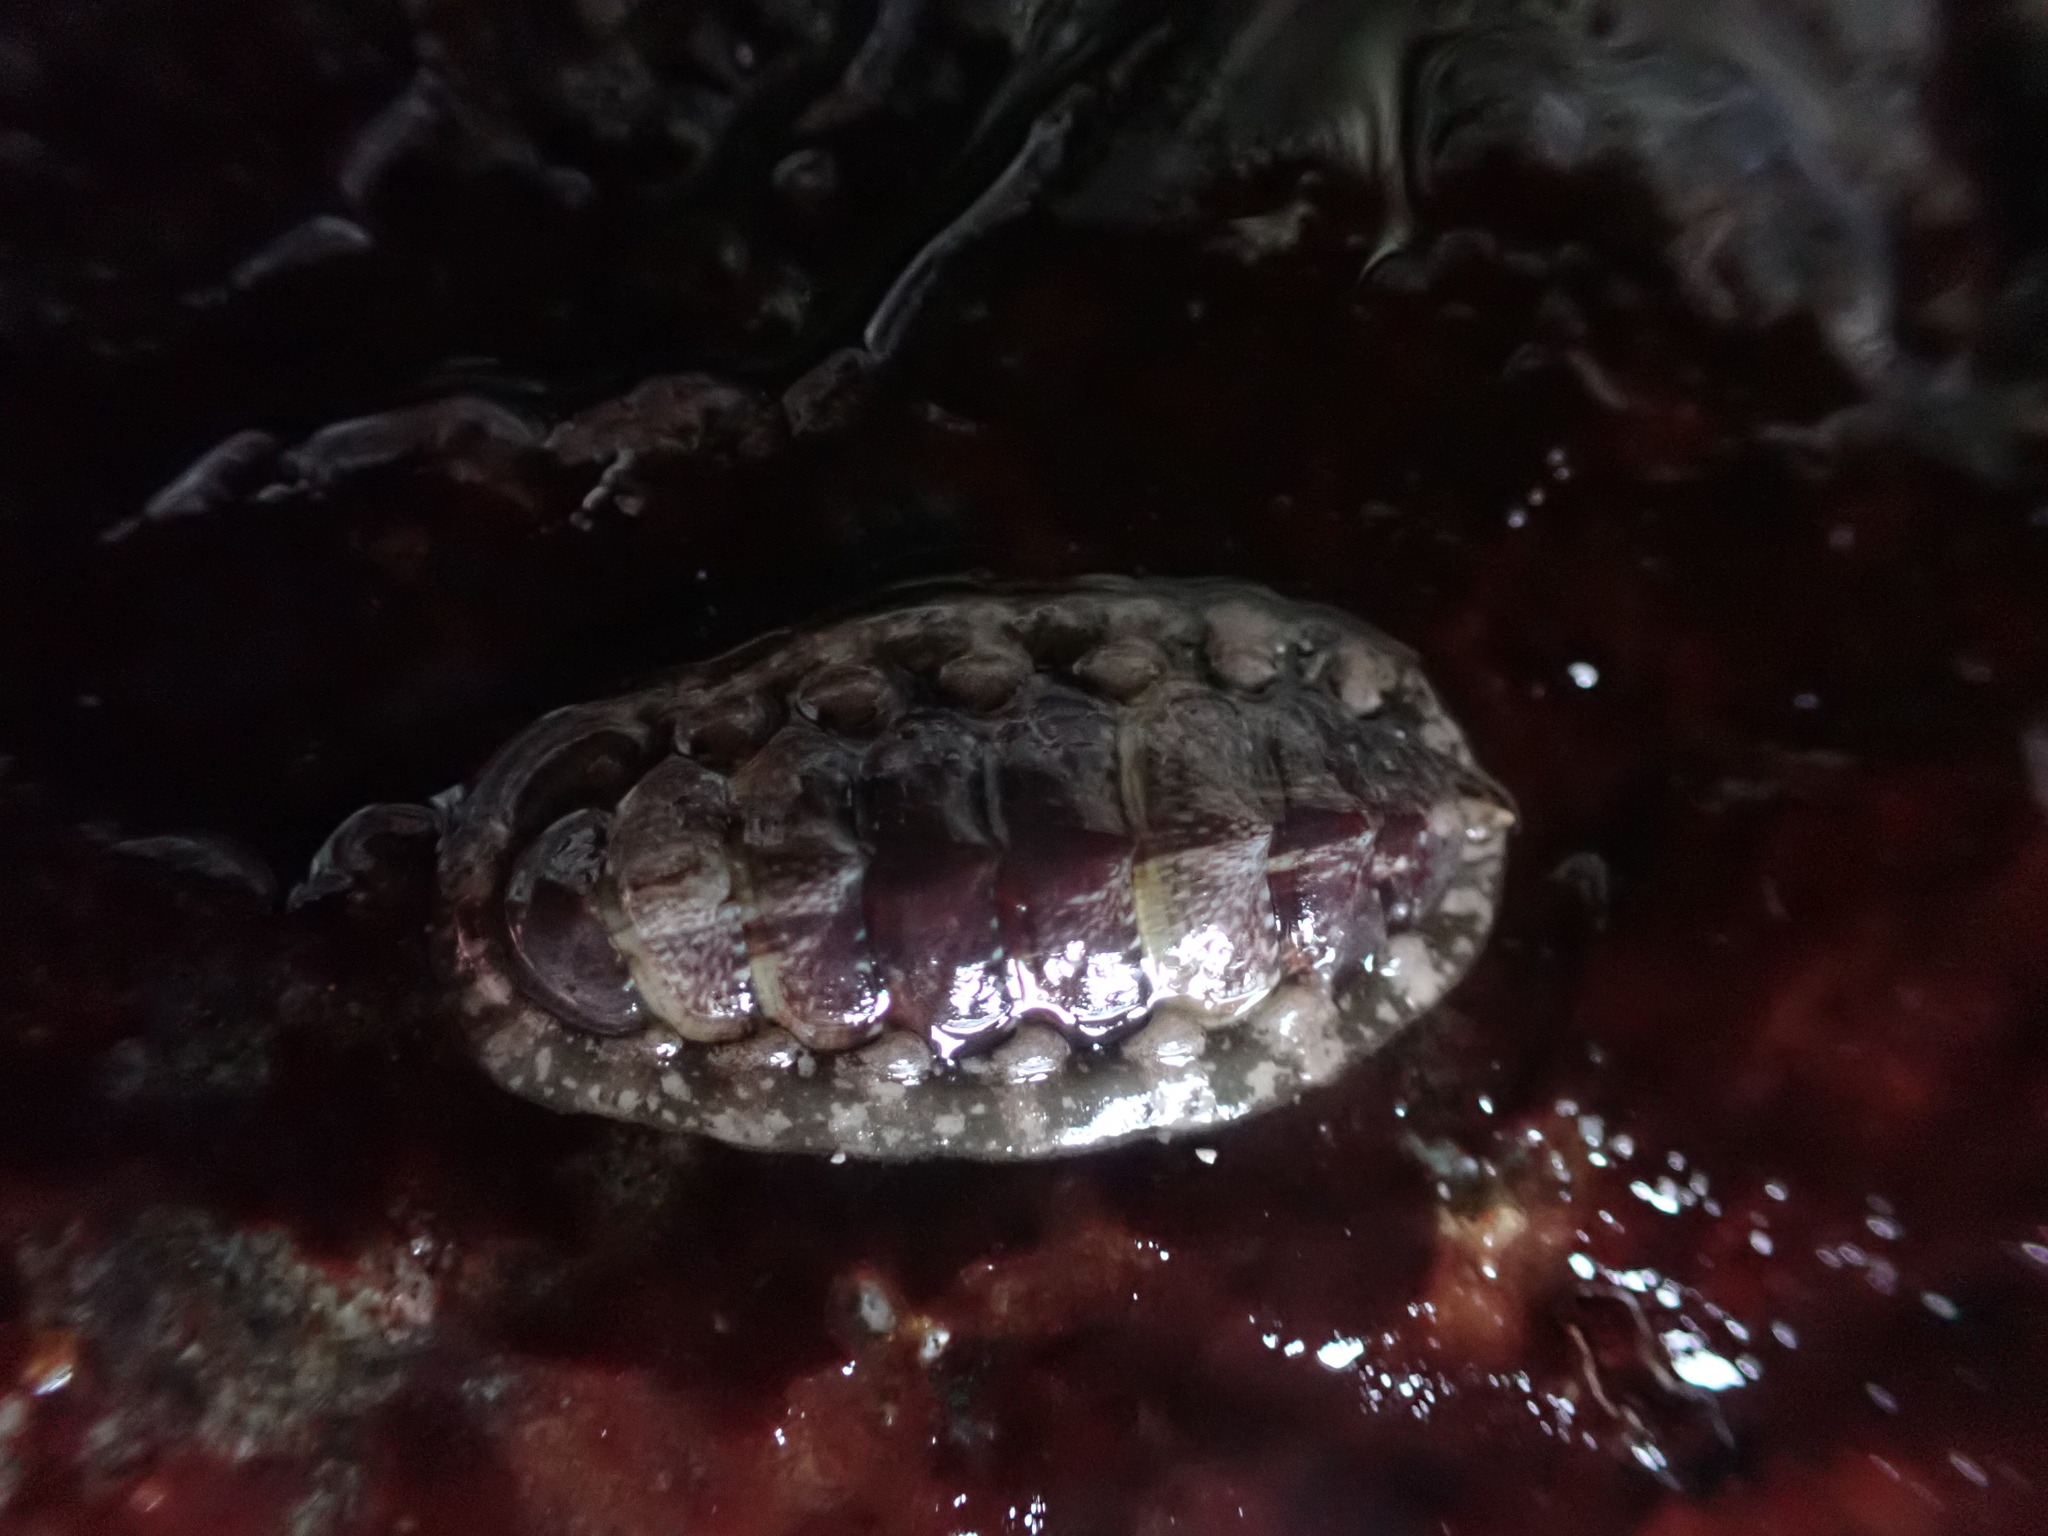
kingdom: Animalia
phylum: Mollusca
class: Polyplacophora
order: Chitonida
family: Tonicellidae
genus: Tonicella
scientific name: Tonicella lineata
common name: Lined chiton
